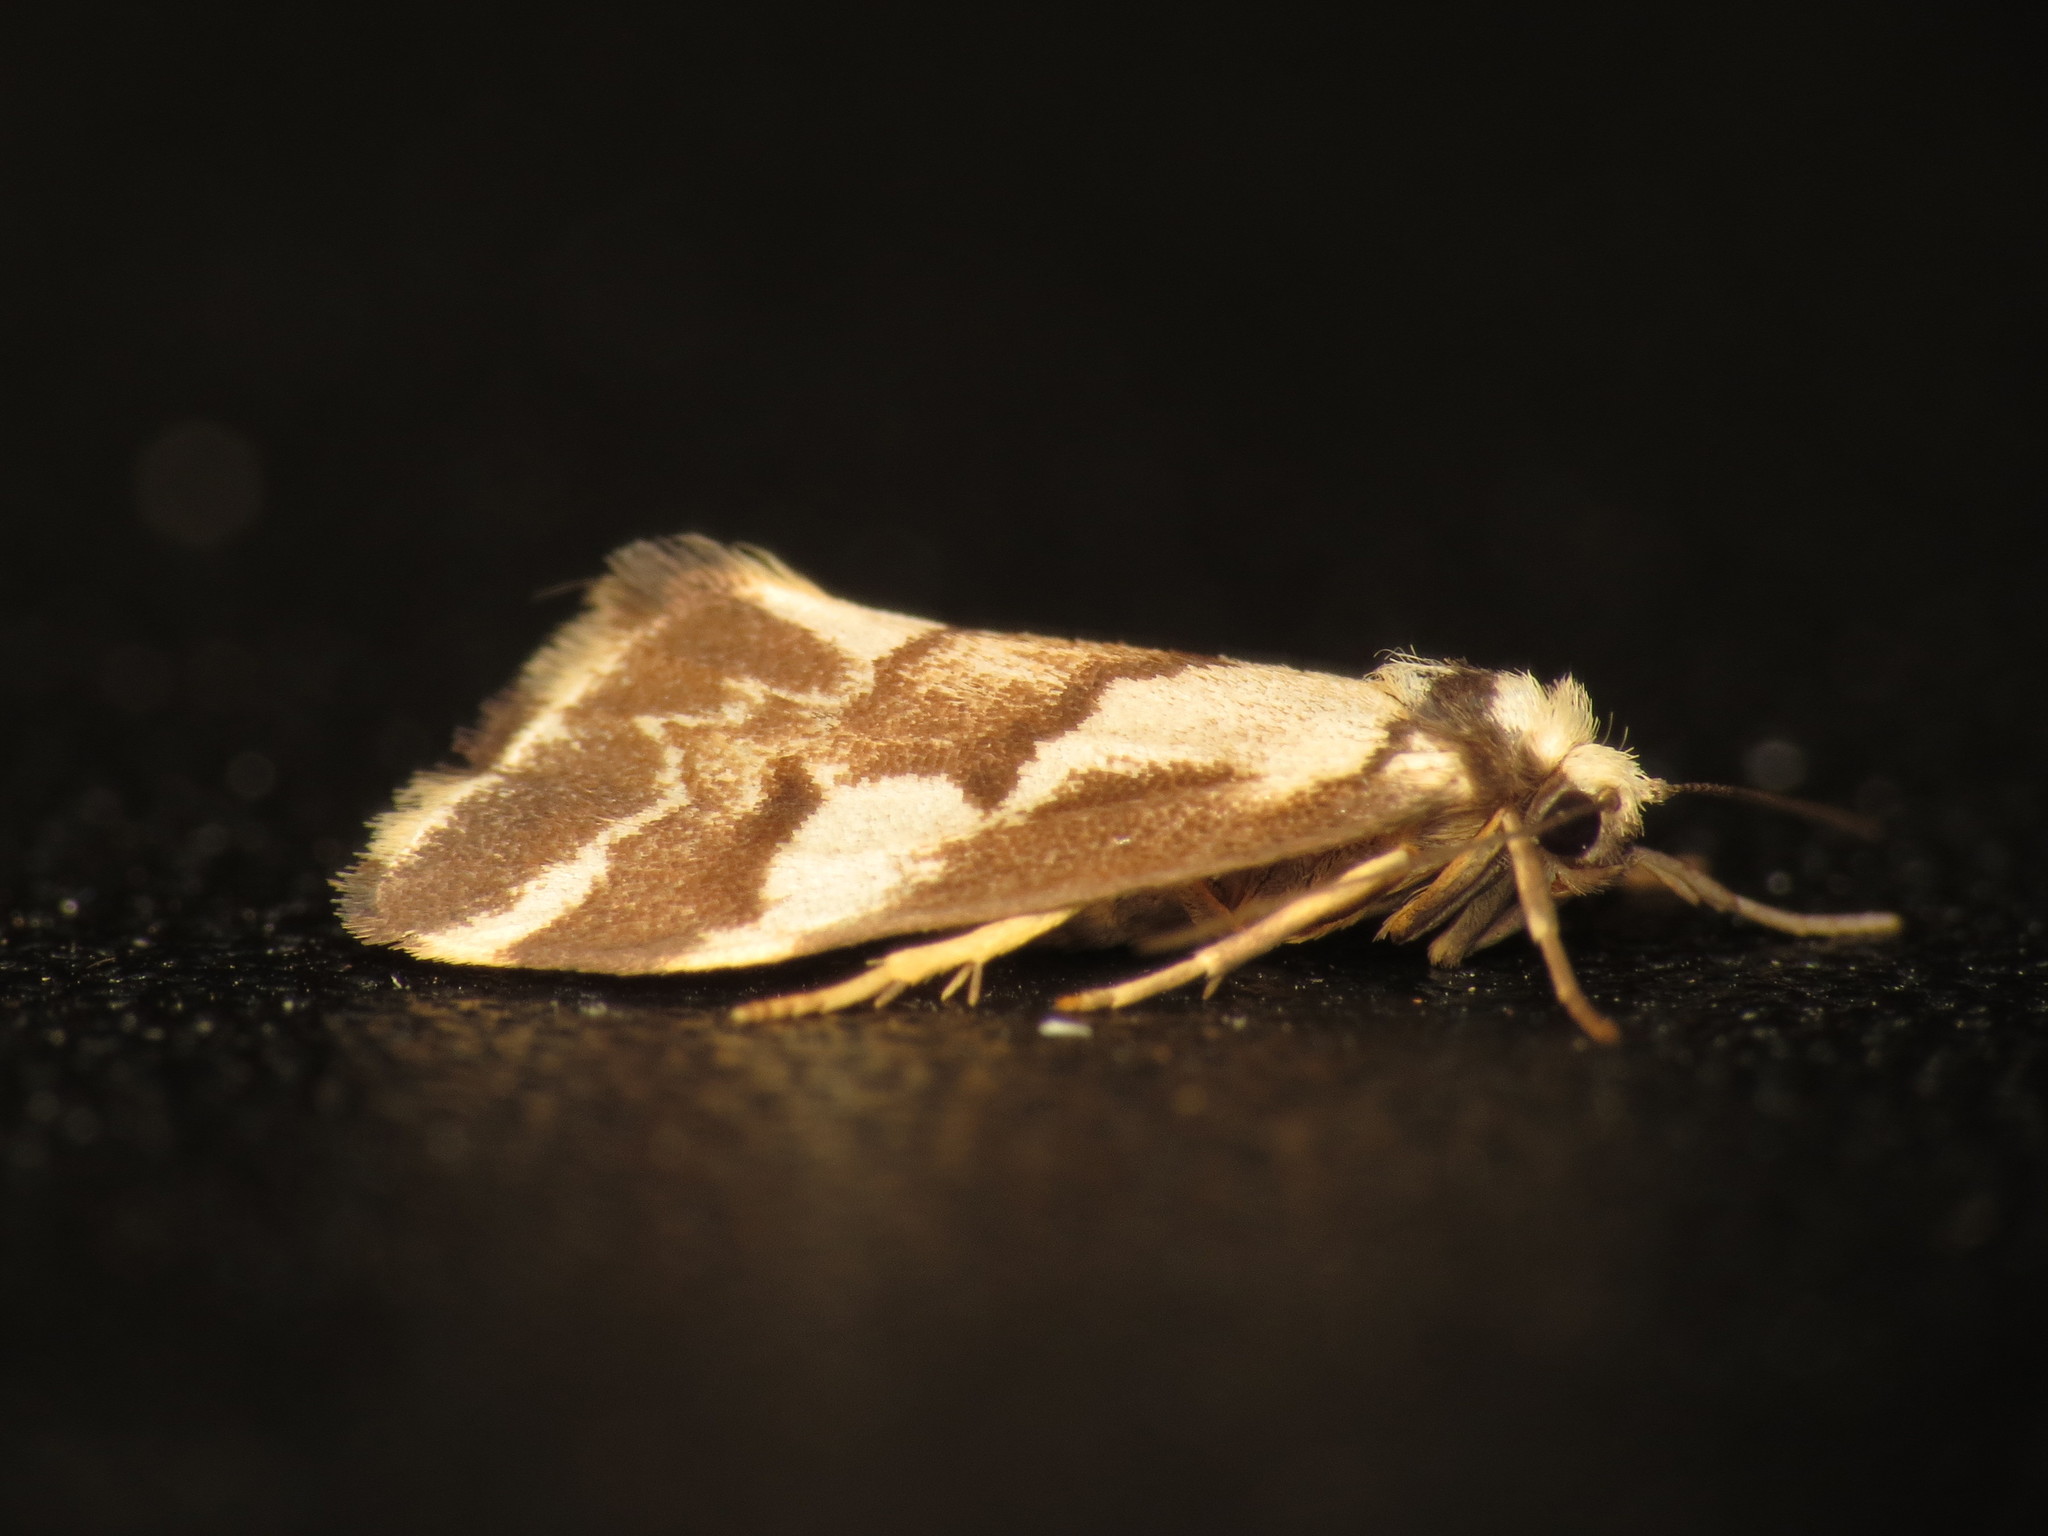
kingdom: Animalia
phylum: Arthropoda
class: Insecta
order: Lepidoptera
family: Erebidae
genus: Philenora
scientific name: Philenora chionastis
